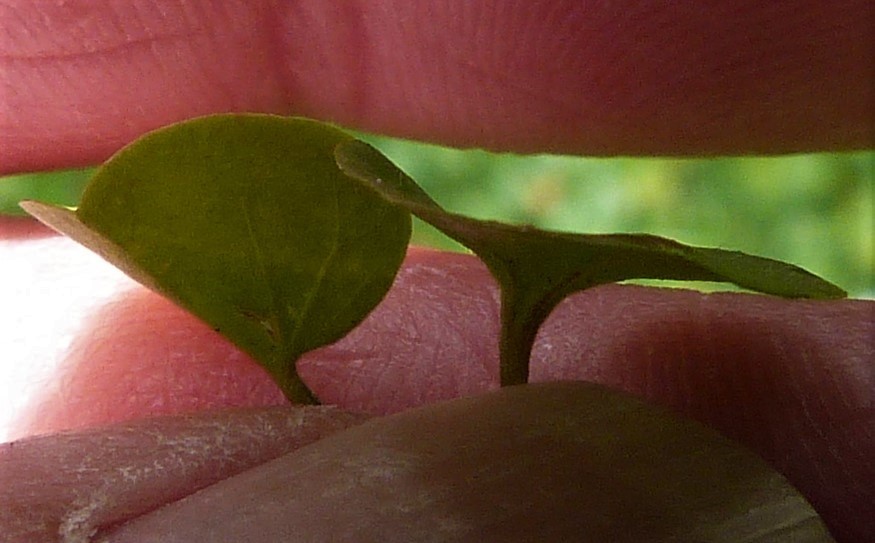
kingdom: Plantae
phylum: Tracheophyta
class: Magnoliopsida
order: Solanales
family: Convolvulaceae
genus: Dichondra
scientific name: Dichondra micrantha
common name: Kidneyweed
